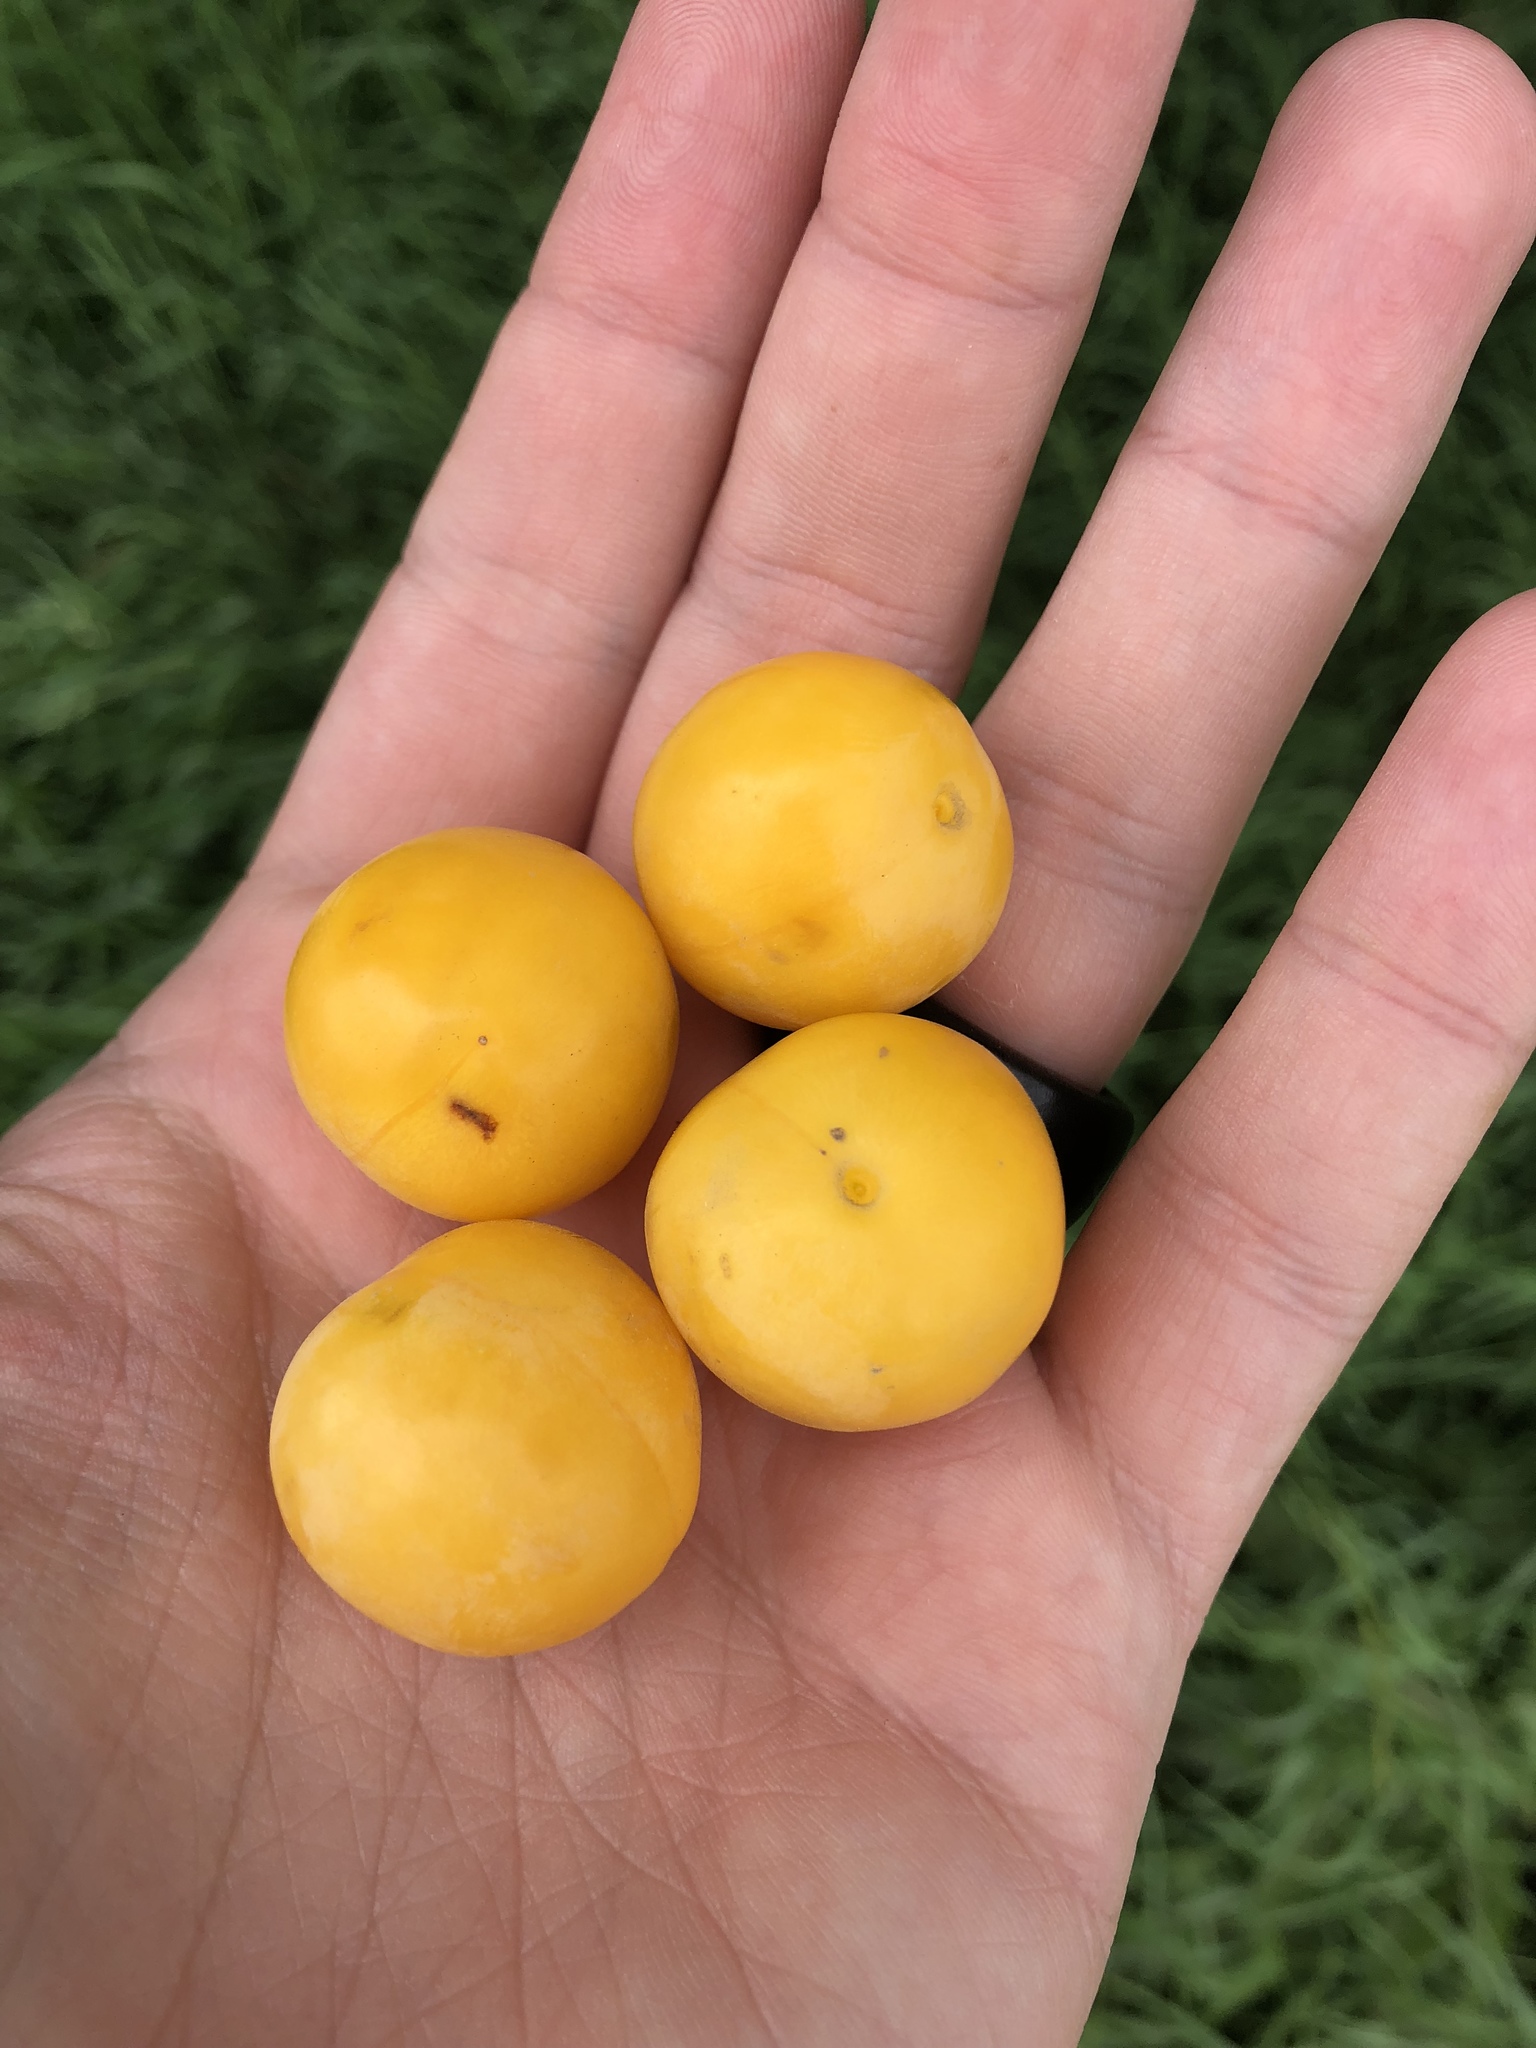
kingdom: Plantae
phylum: Tracheophyta
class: Magnoliopsida
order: Rosales
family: Rosaceae
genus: Prunus
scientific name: Prunus cerasifera
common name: Cherry plum
